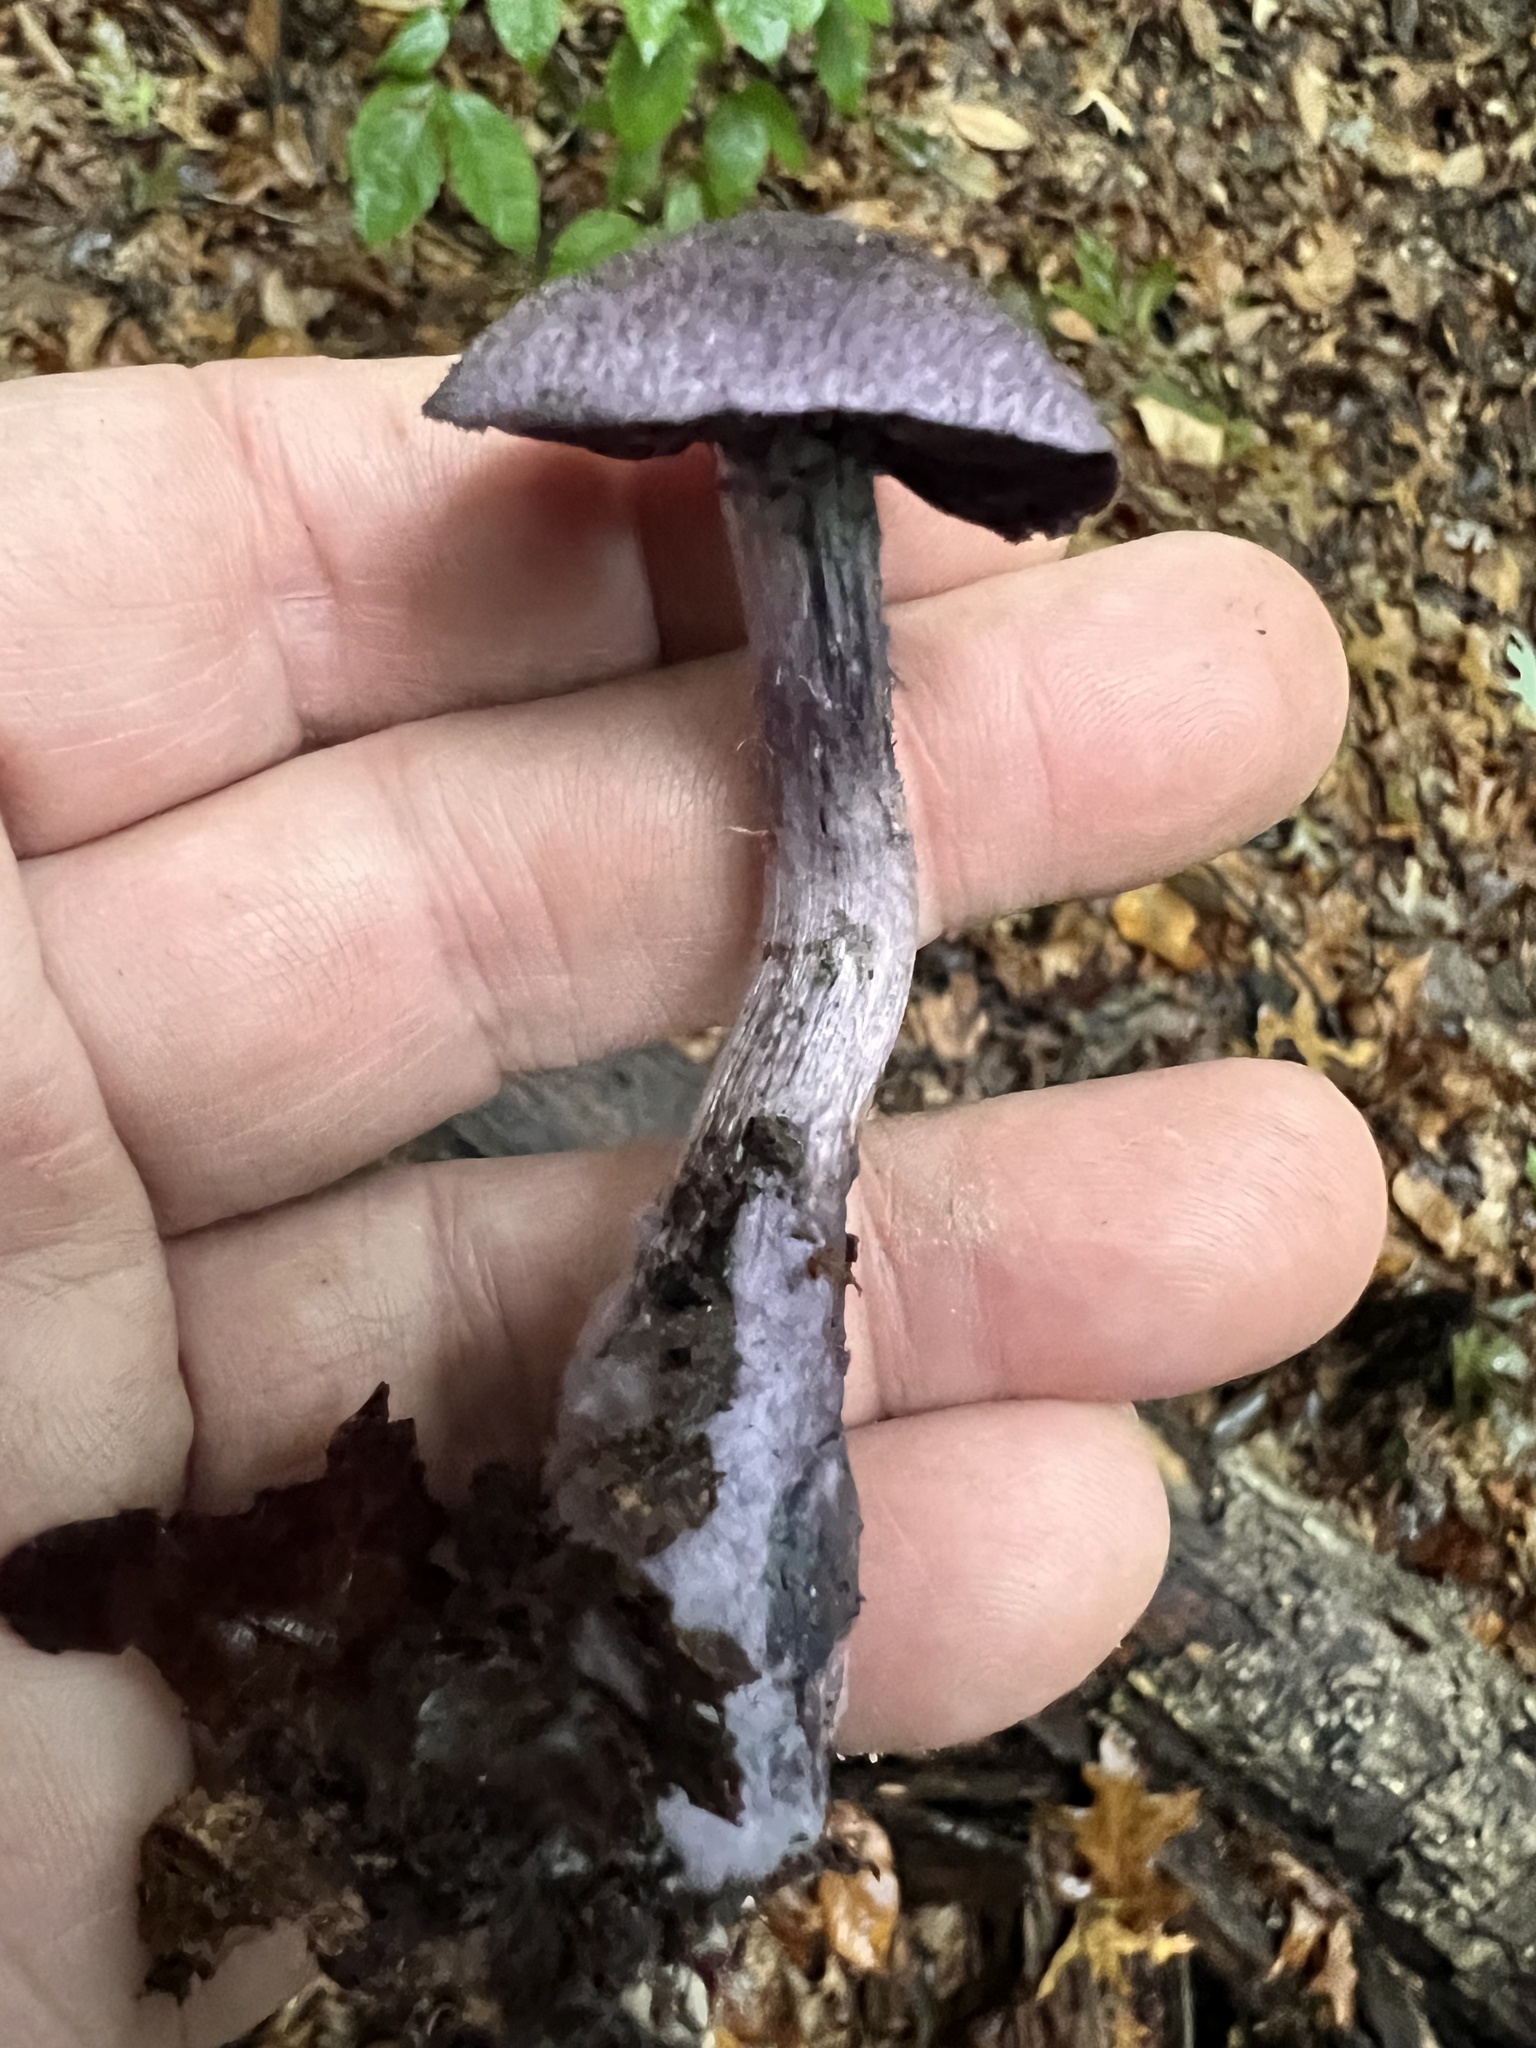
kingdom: Fungi
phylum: Basidiomycota
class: Agaricomycetes
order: Agaricales
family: Cortinariaceae
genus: Cortinarius
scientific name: Cortinarius violaceus
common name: Violet webcap
